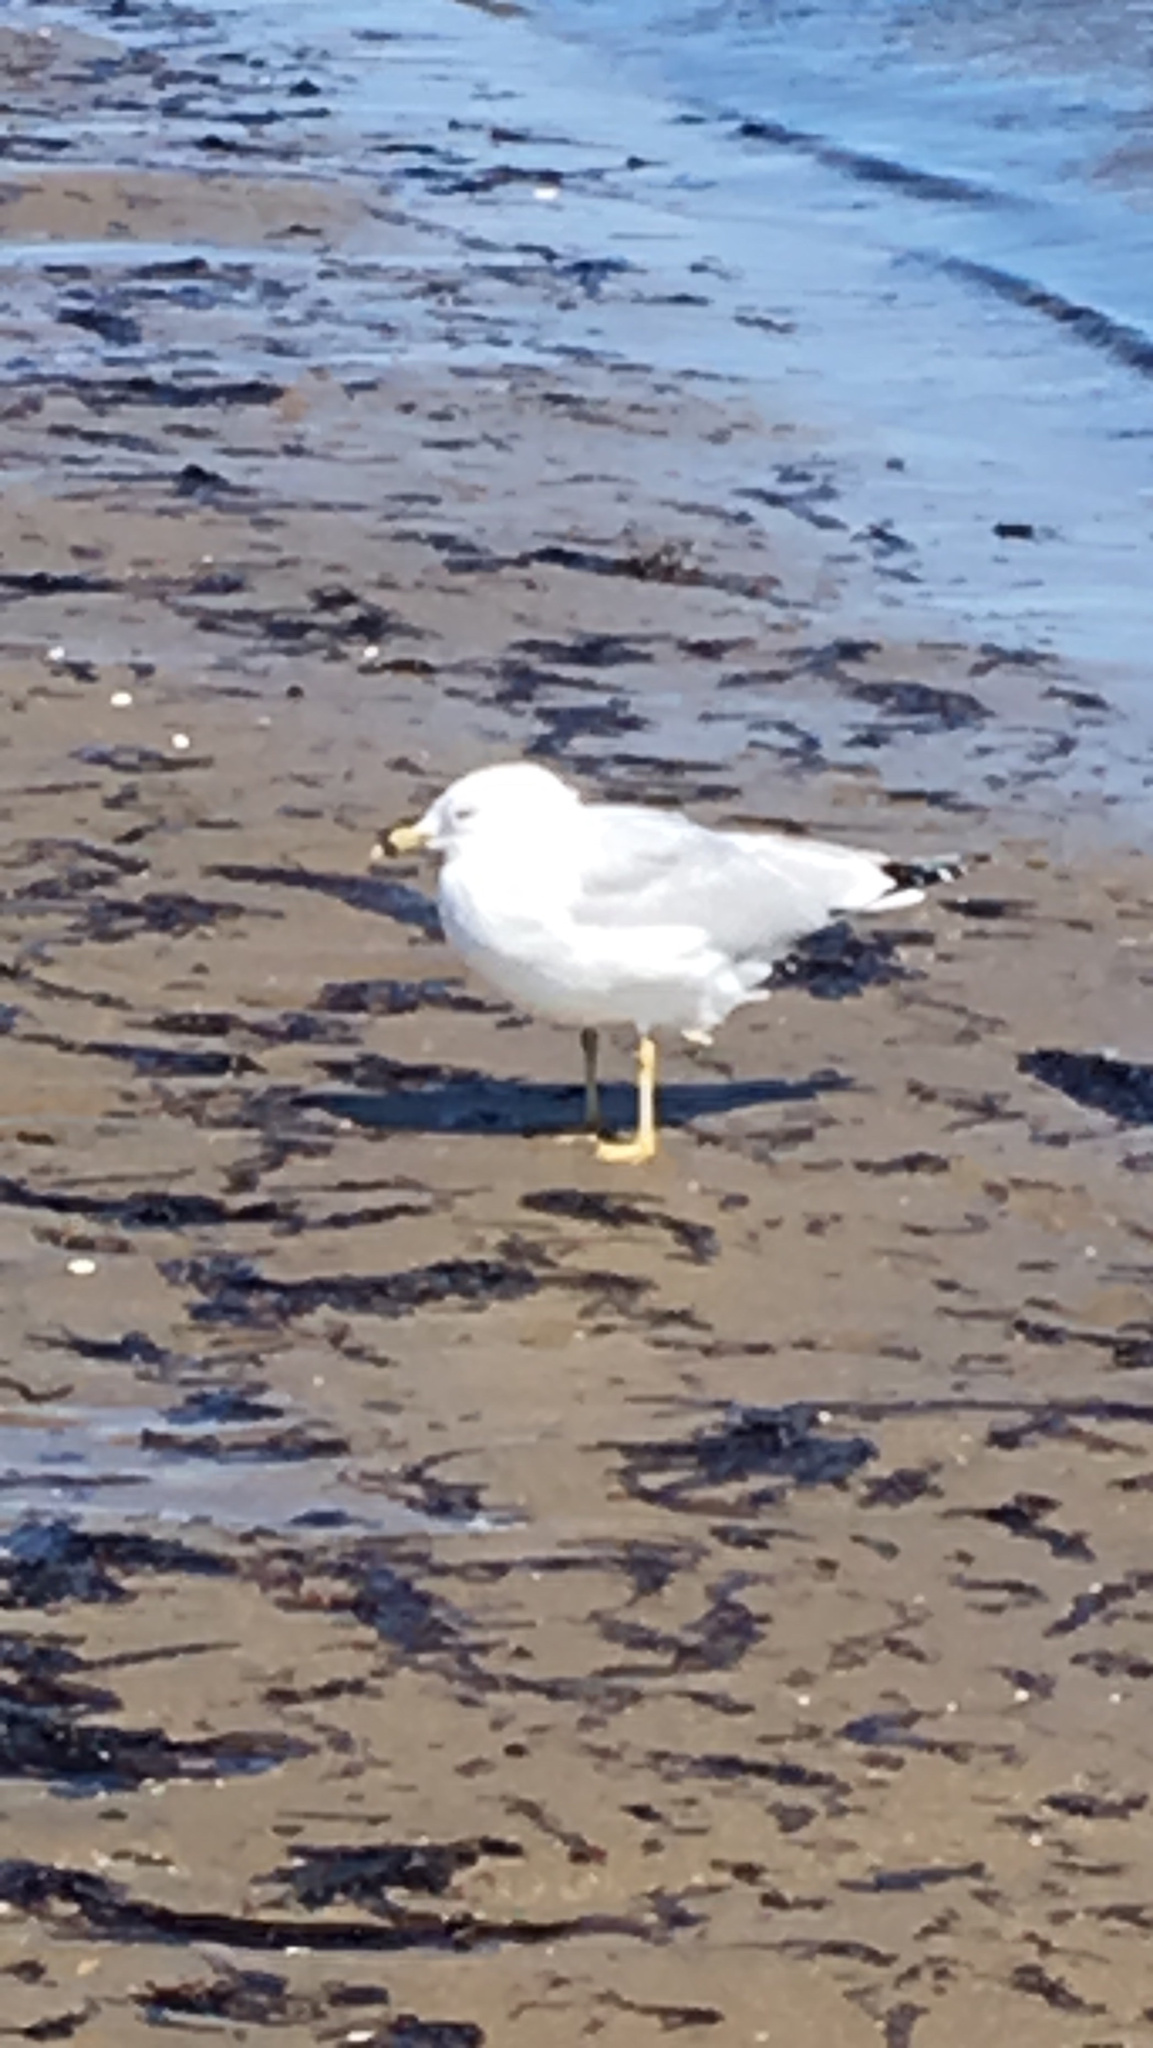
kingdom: Animalia
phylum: Chordata
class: Aves
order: Charadriiformes
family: Laridae
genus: Larus
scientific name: Larus delawarensis
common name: Ring-billed gull
